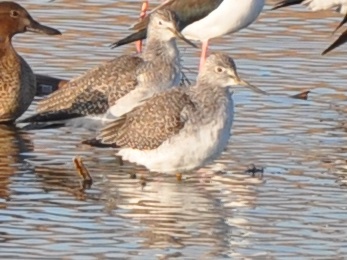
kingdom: Animalia
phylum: Chordata
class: Aves
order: Charadriiformes
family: Scolopacidae
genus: Tringa
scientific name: Tringa melanoleuca
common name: Greater yellowlegs
